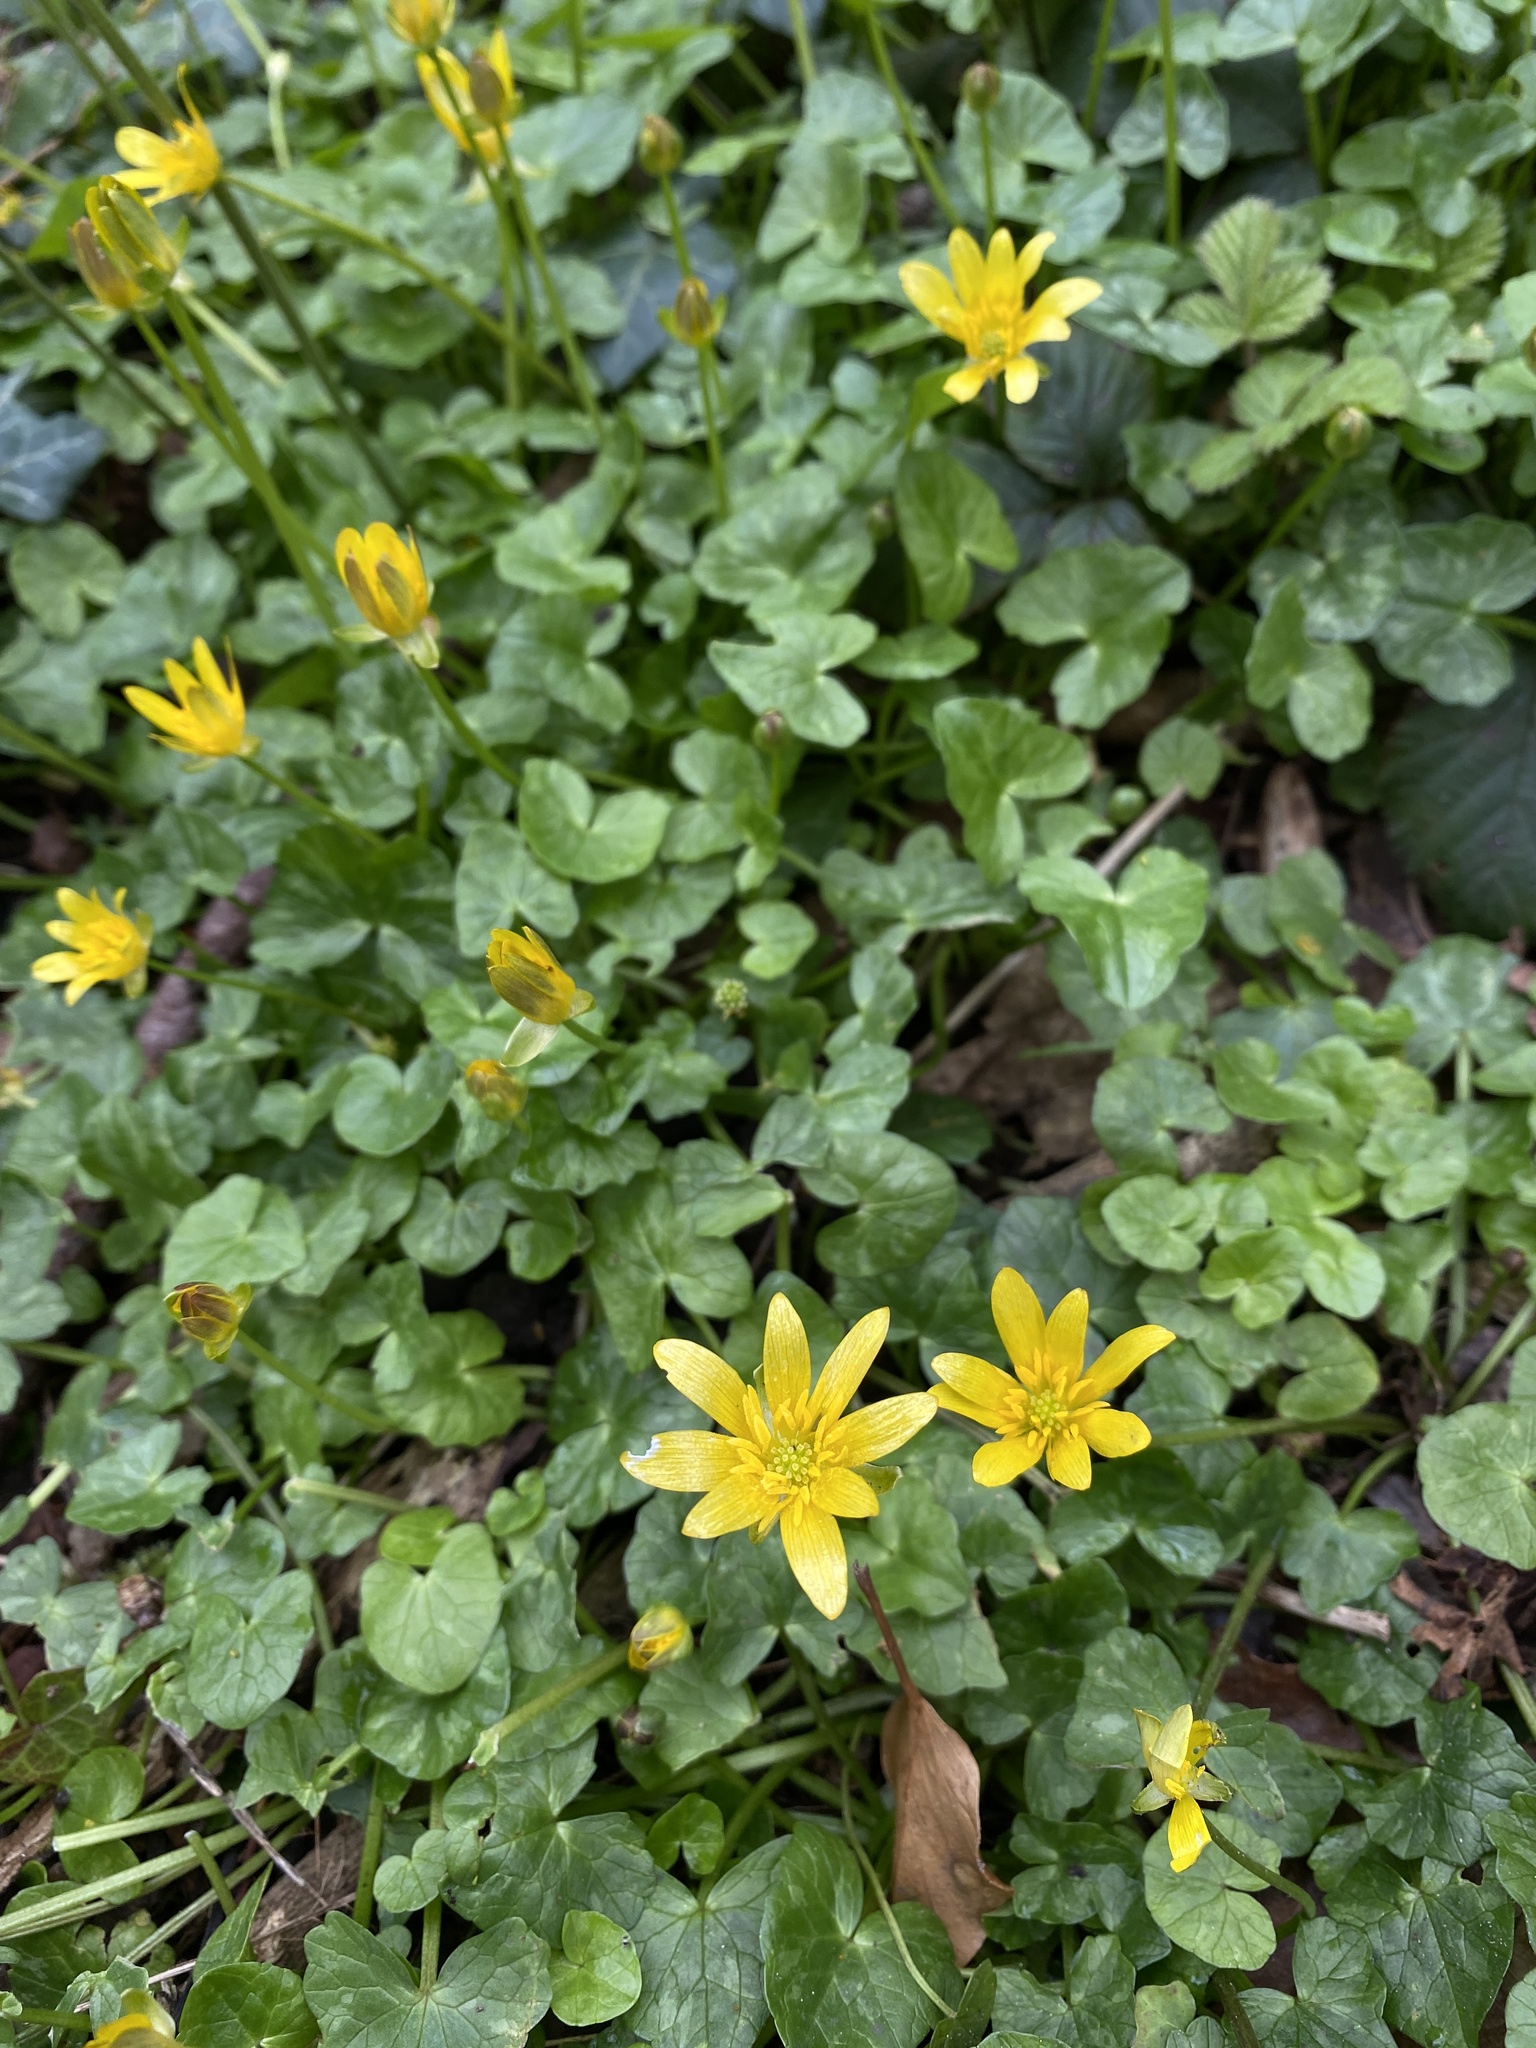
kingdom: Plantae
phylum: Tracheophyta
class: Magnoliopsida
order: Ranunculales
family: Ranunculaceae
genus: Ficaria
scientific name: Ficaria verna
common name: Lesser celandine
